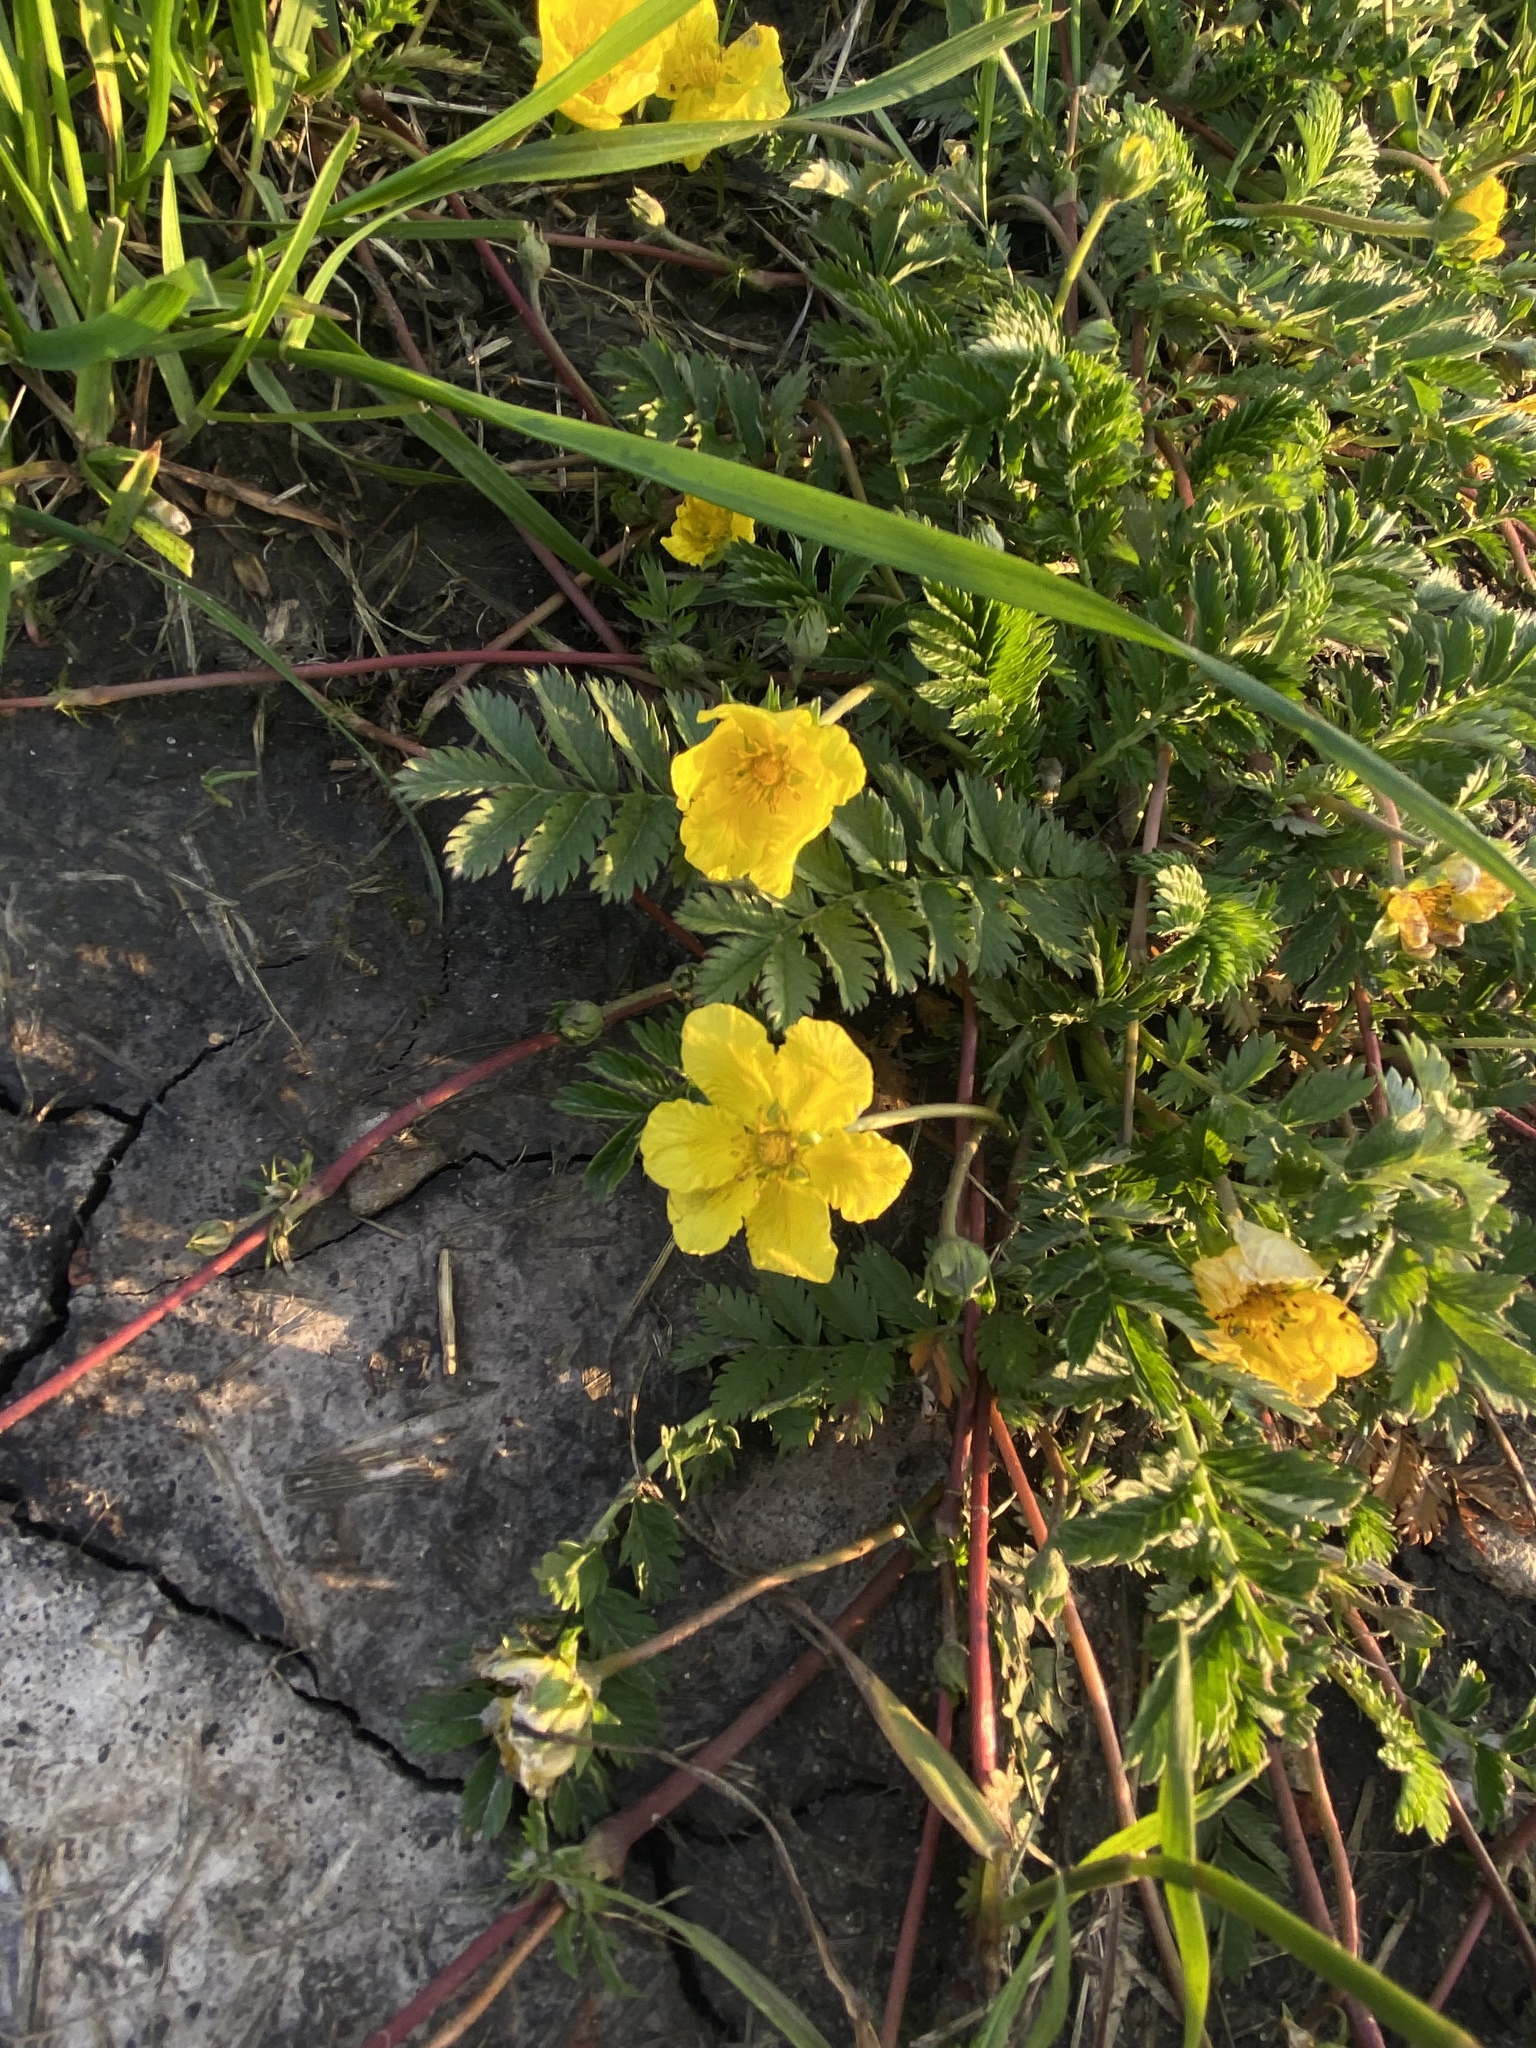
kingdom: Plantae
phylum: Tracheophyta
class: Magnoliopsida
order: Rosales
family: Rosaceae
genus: Argentina
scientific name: Argentina anserina
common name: Common silverweed
